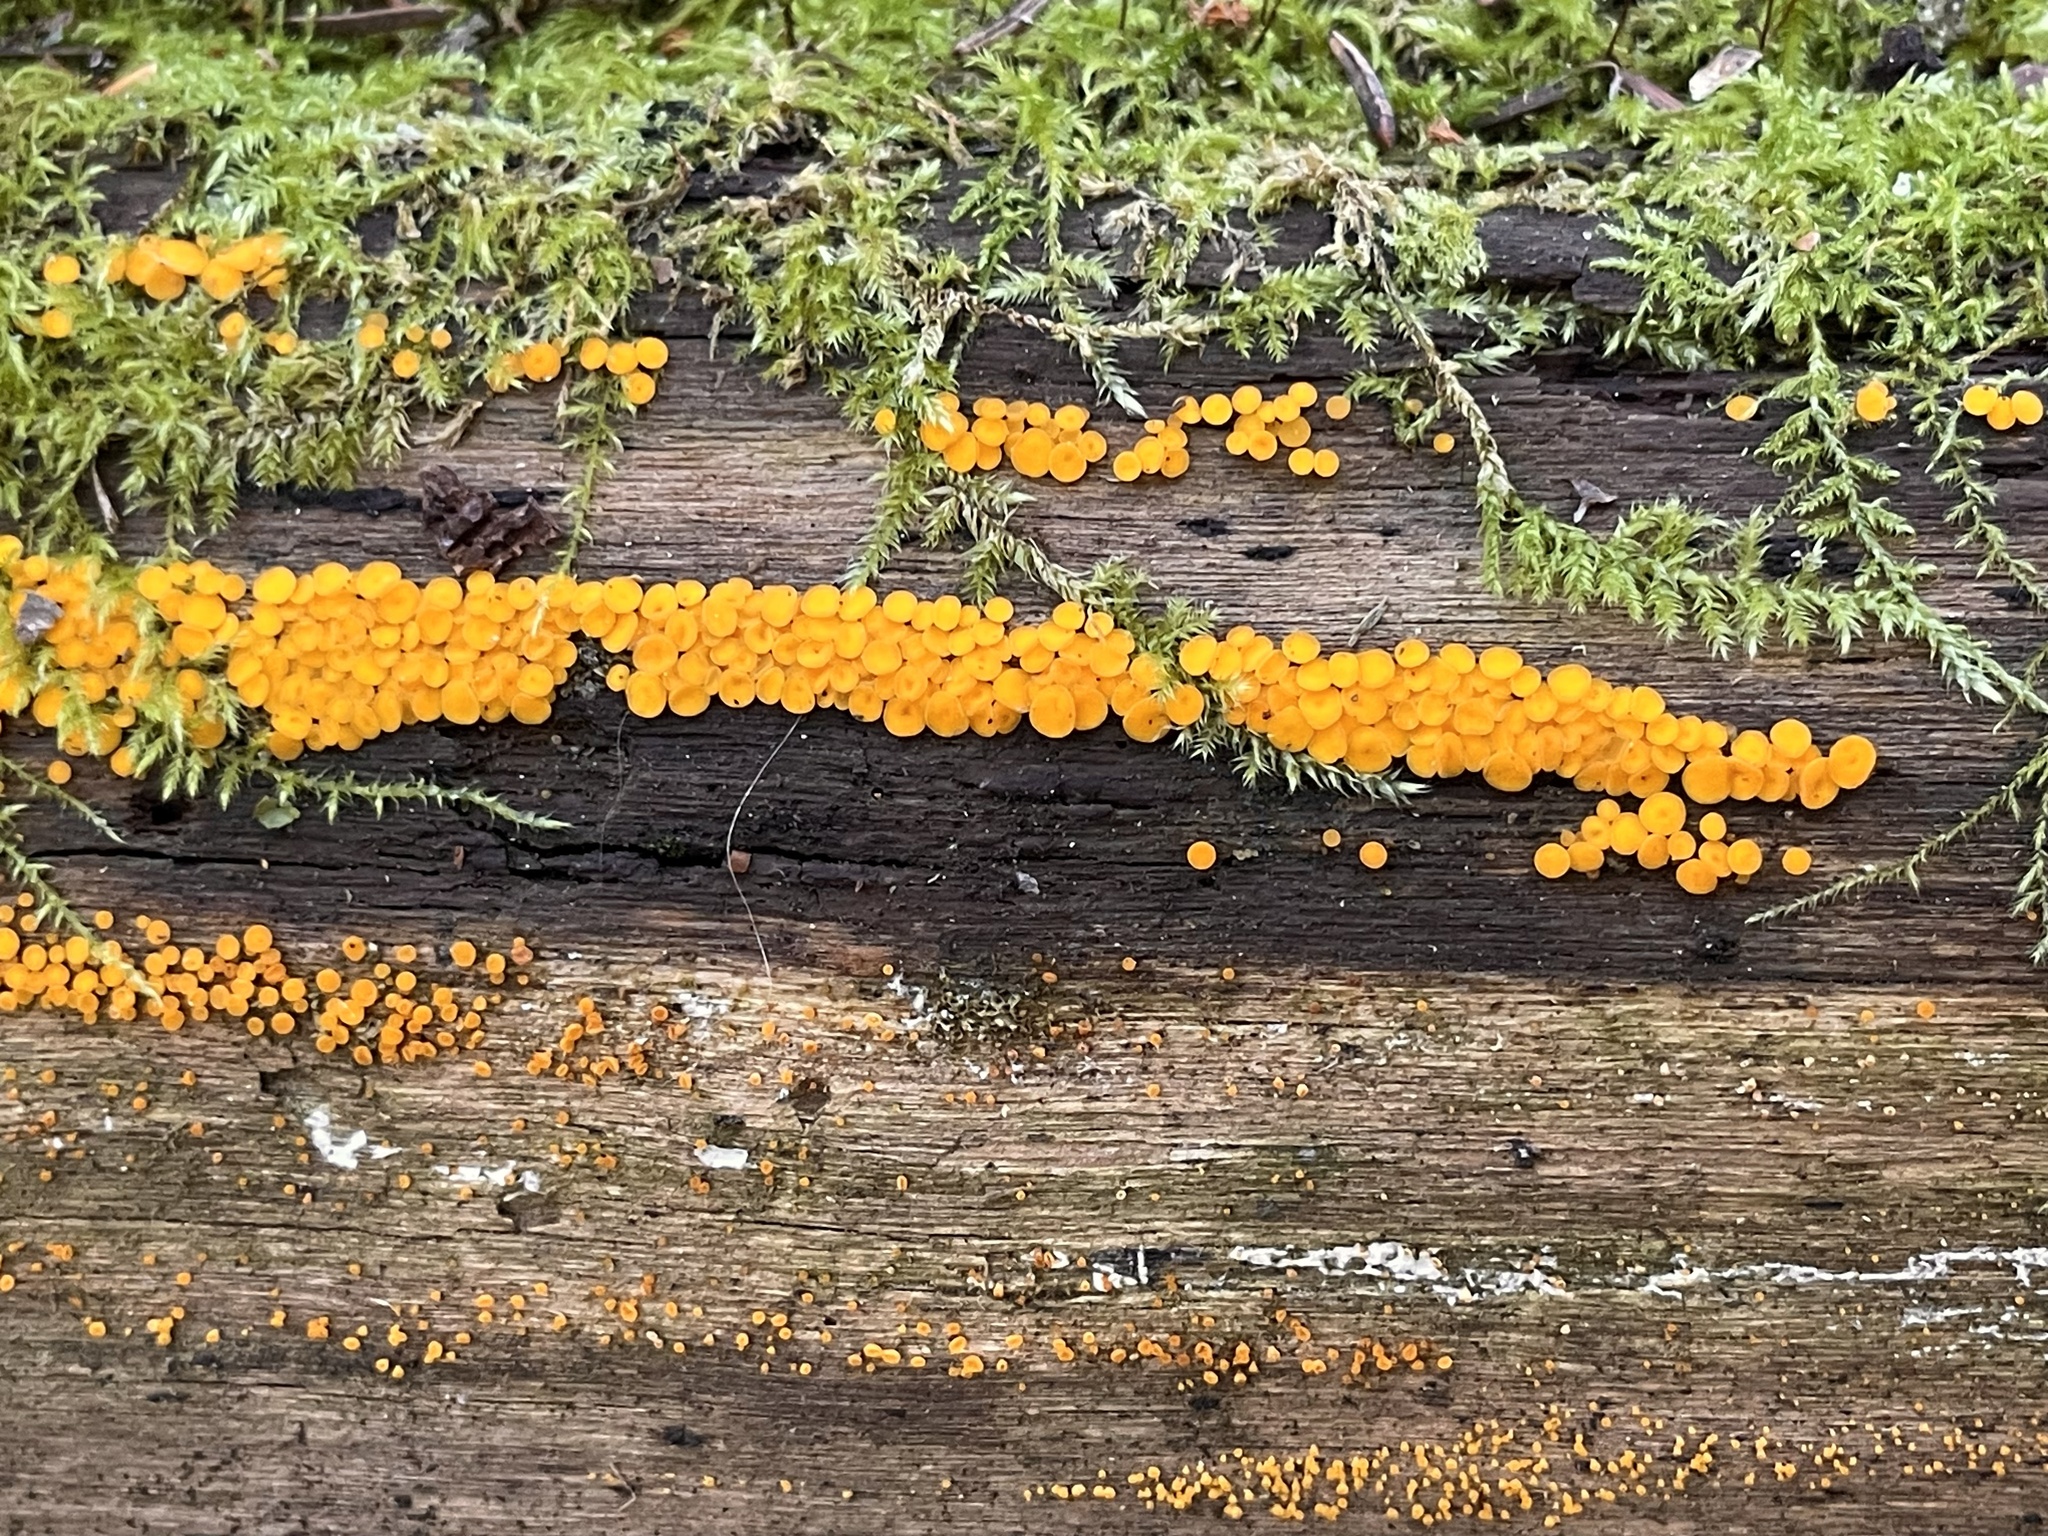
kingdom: Fungi
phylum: Ascomycota
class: Leotiomycetes
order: Helotiales
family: Pezizellaceae
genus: Calycina
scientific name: Calycina citrina
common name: Yellow fairy cups
